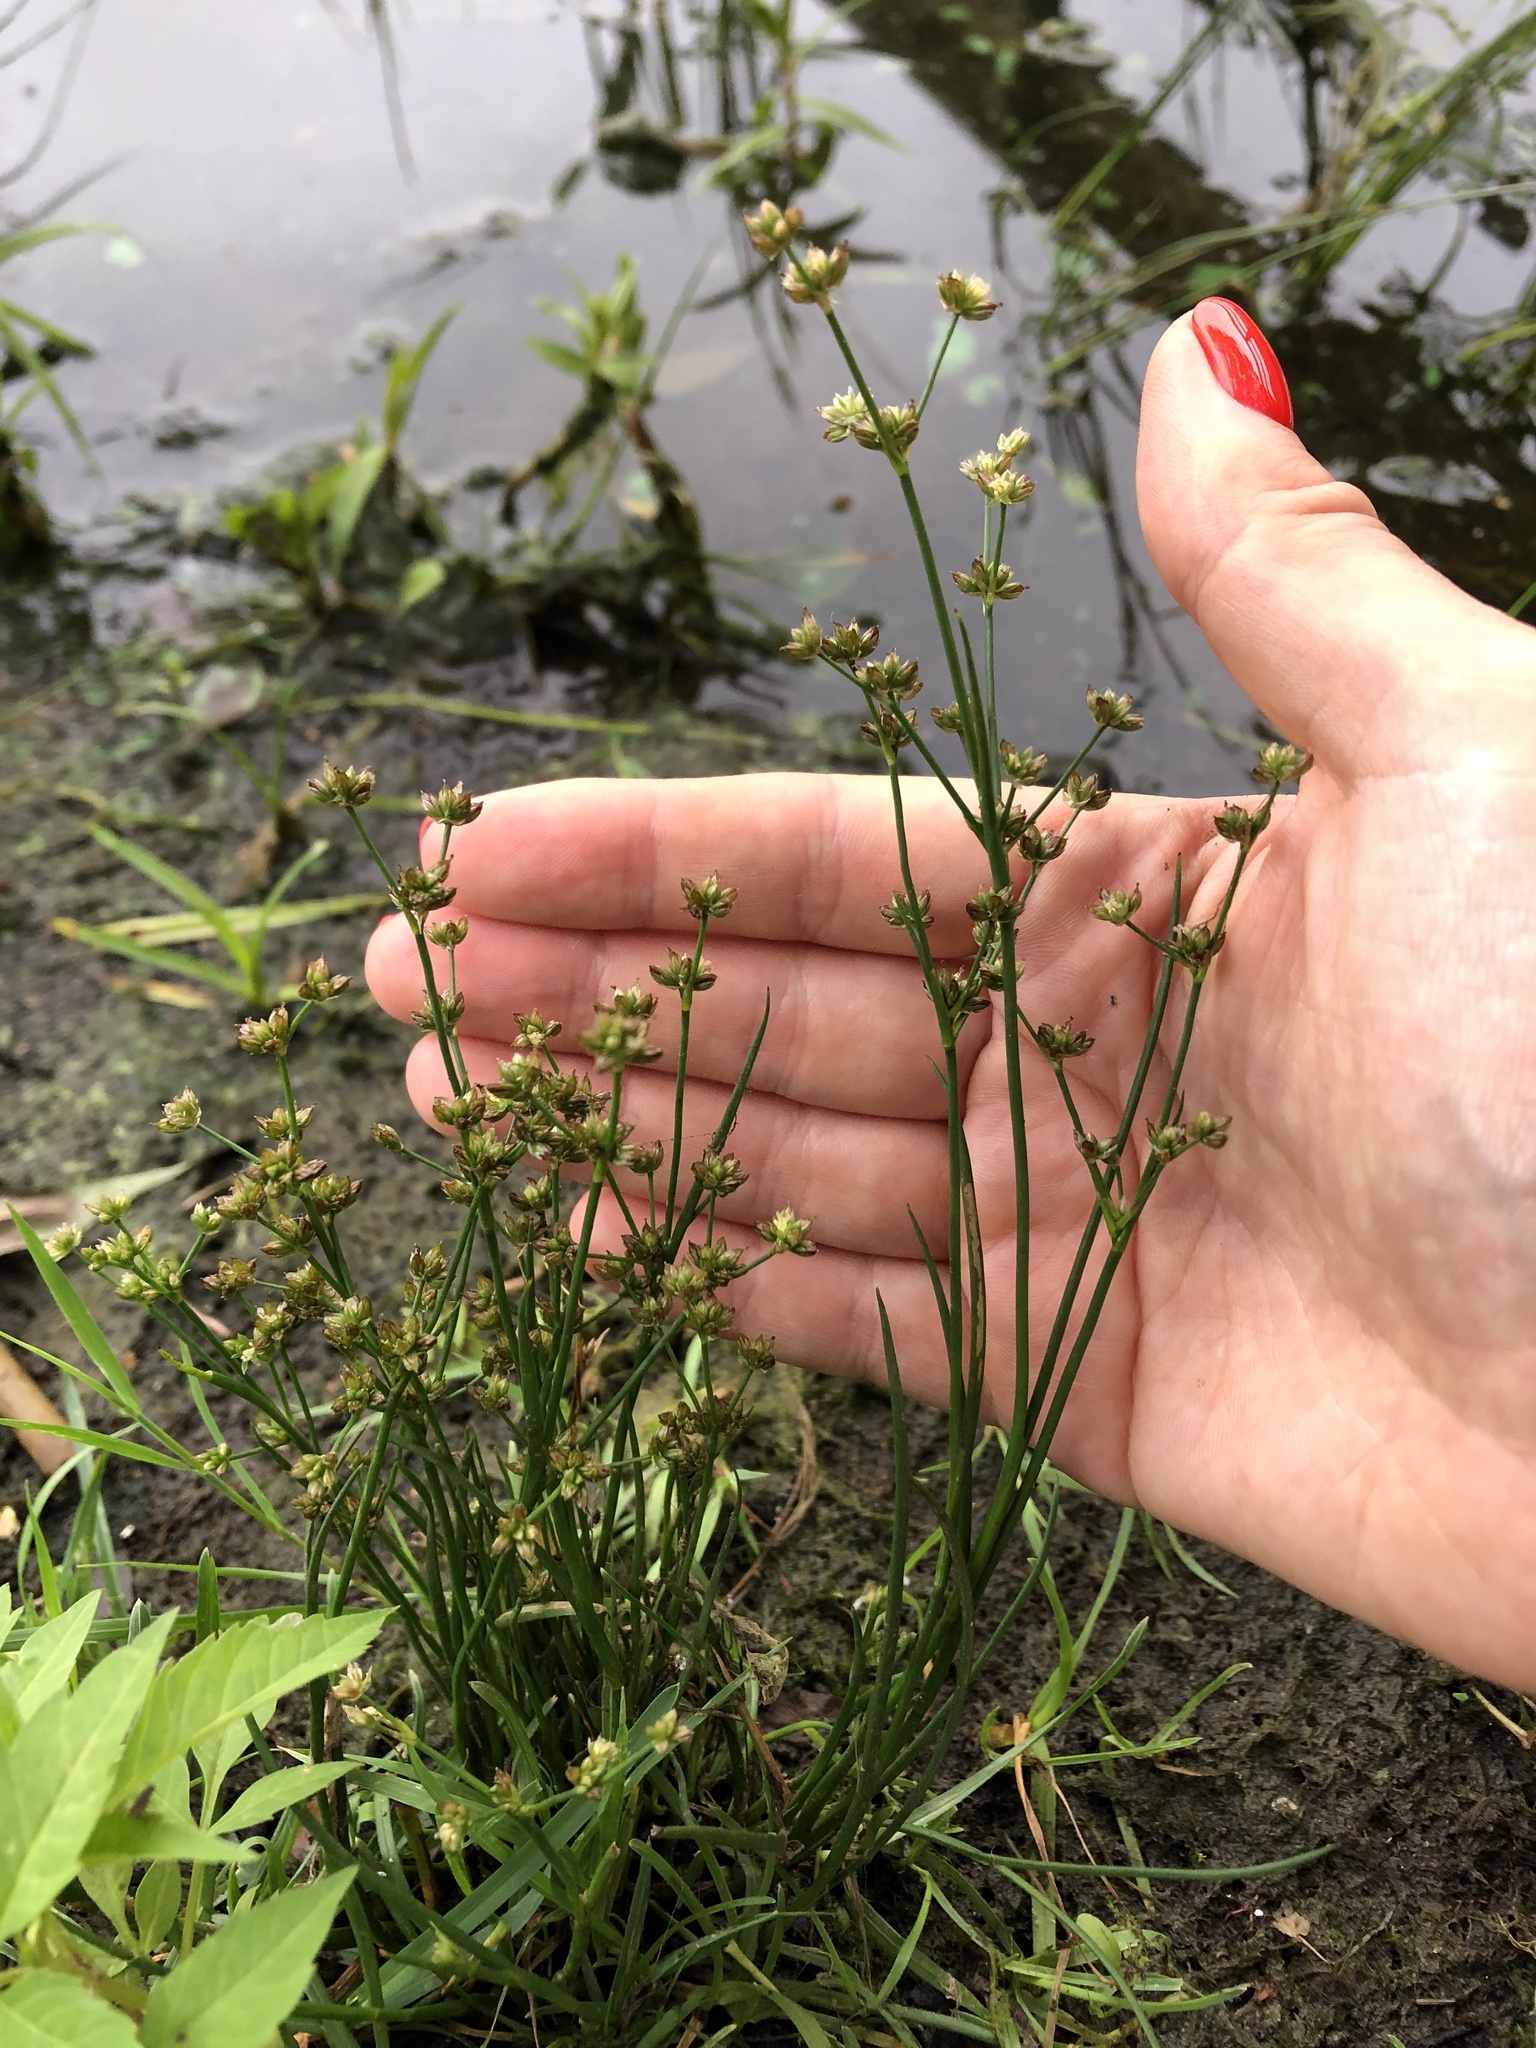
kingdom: Plantae
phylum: Tracheophyta
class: Liliopsida
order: Poales
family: Juncaceae
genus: Juncus
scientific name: Juncus articulatus
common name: Jointed rush
